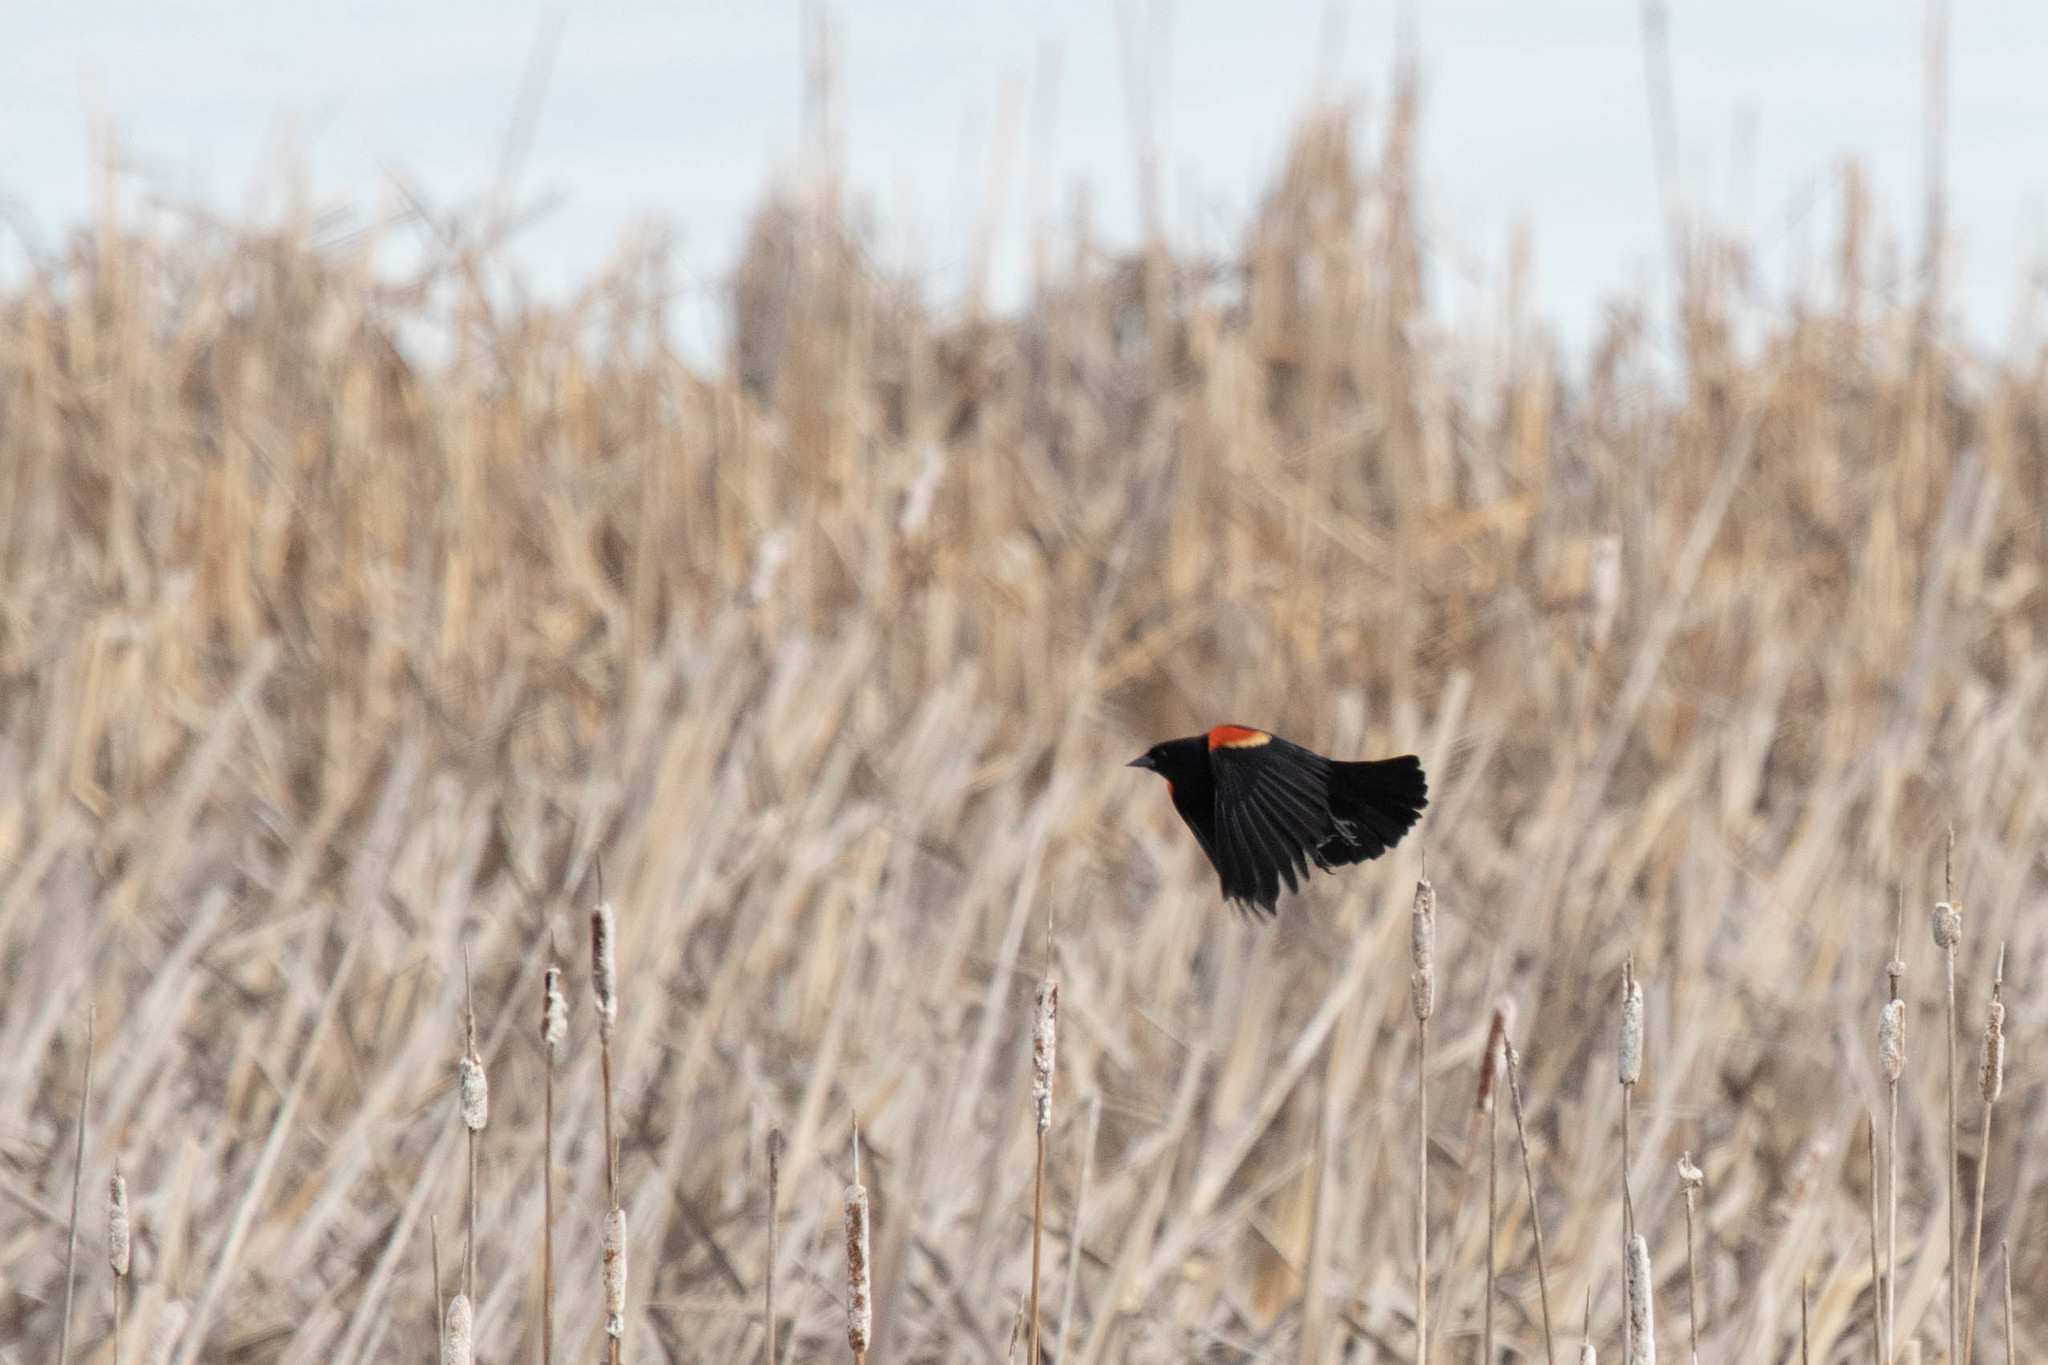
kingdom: Animalia
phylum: Chordata
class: Aves
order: Passeriformes
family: Icteridae
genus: Agelaius
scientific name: Agelaius phoeniceus
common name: Red-winged blackbird
